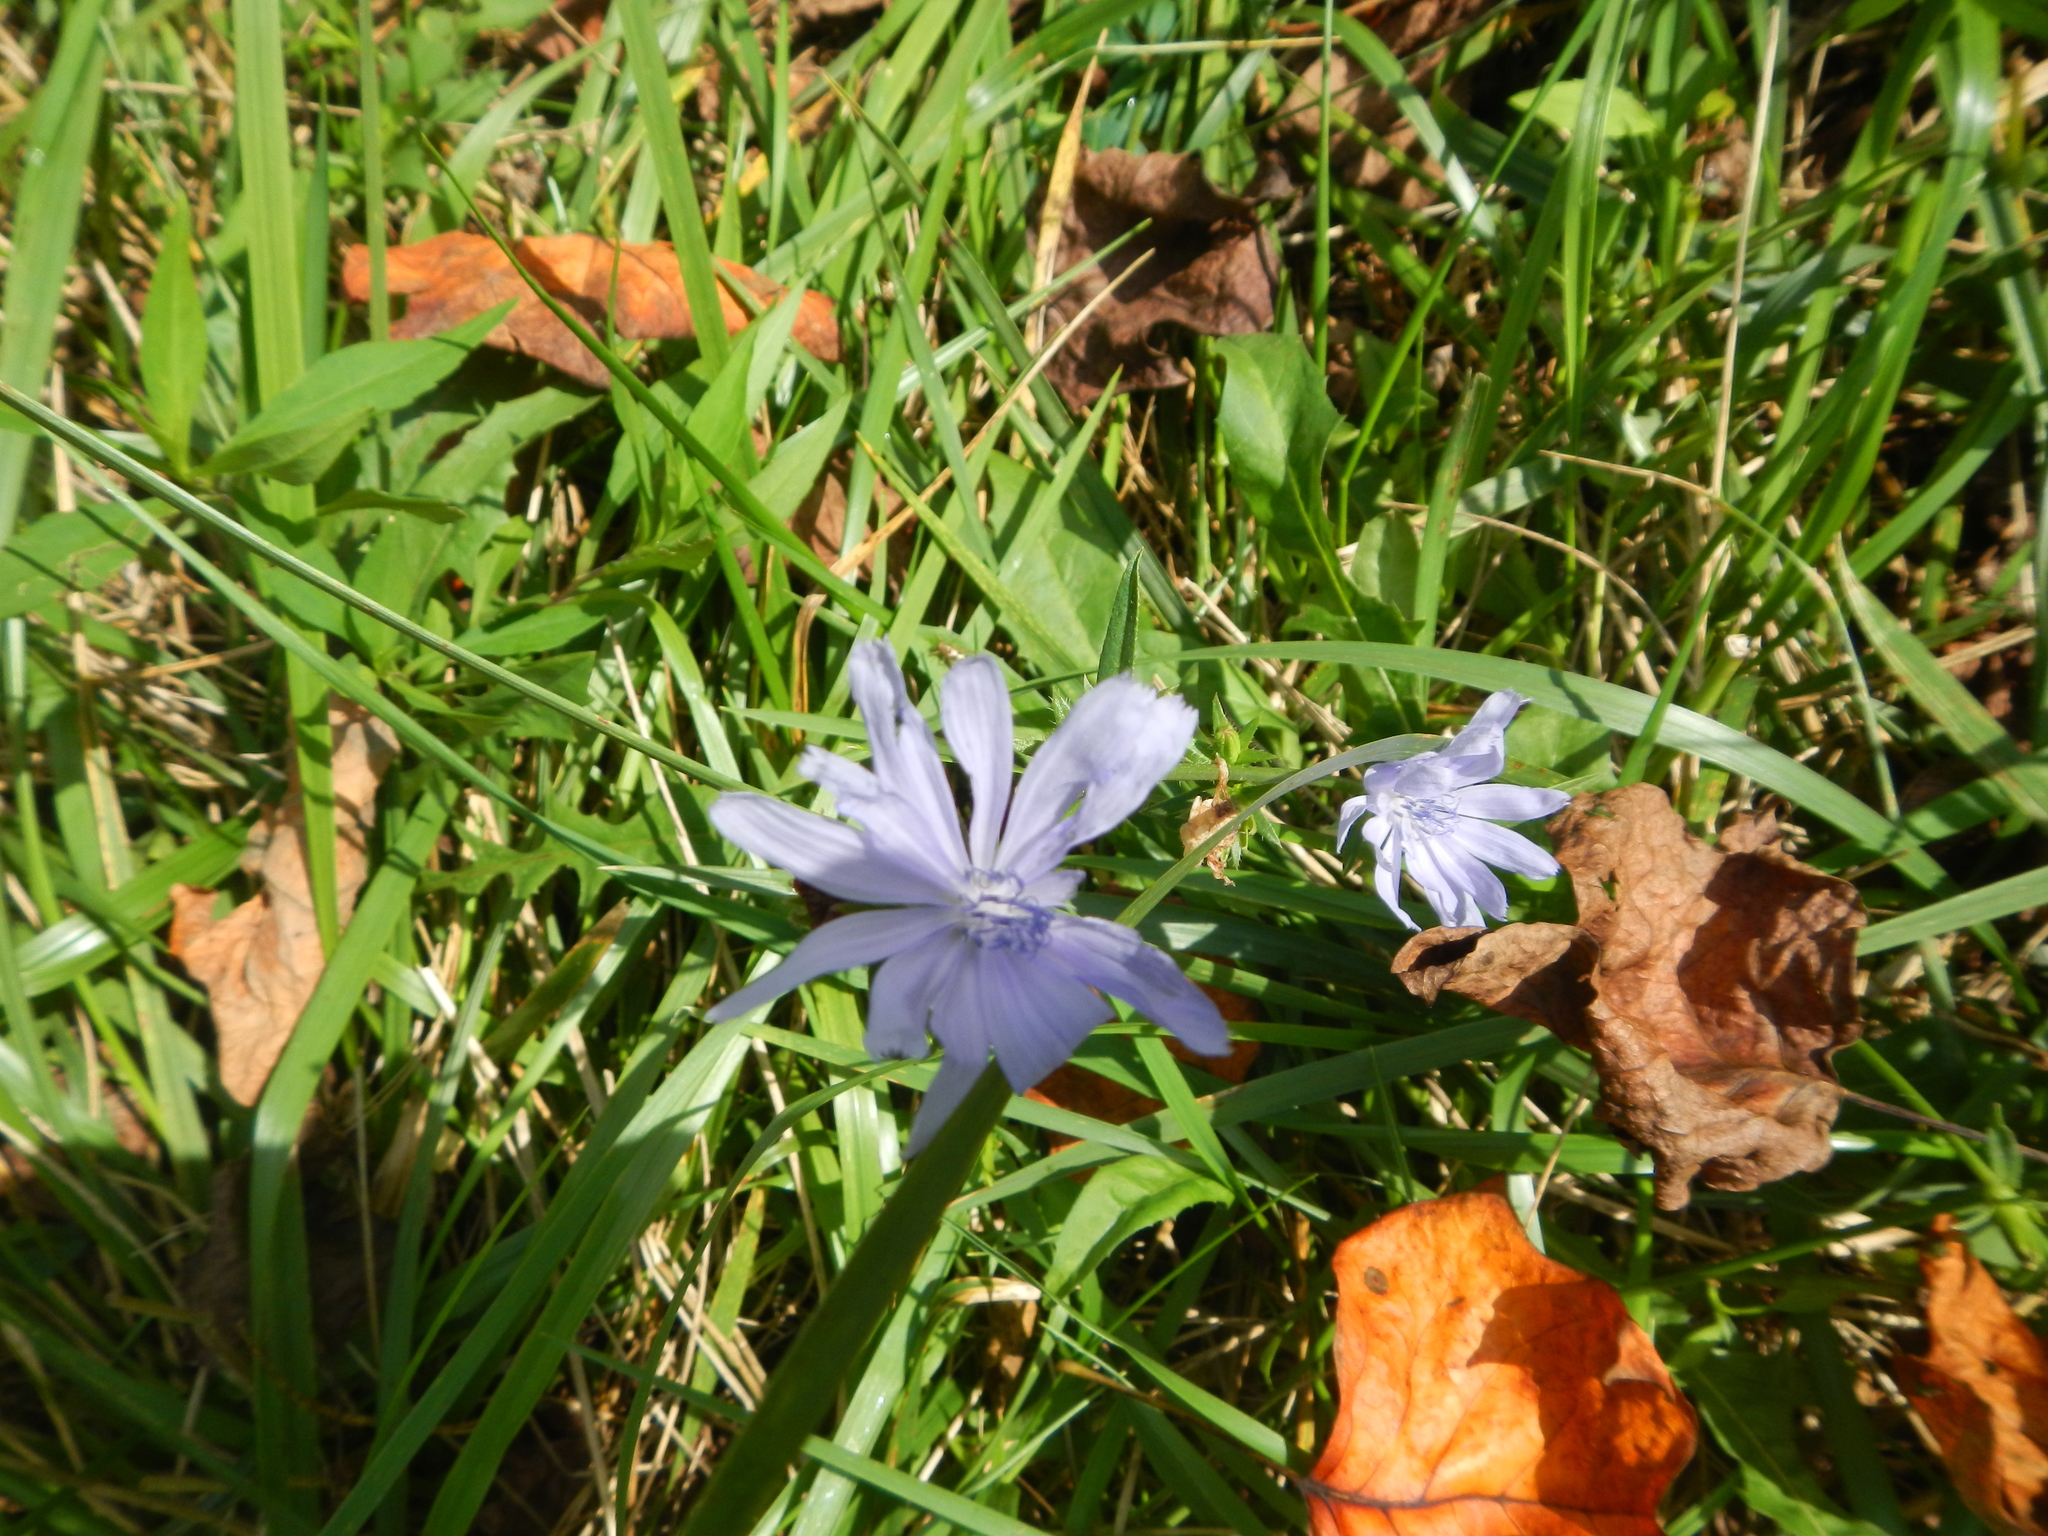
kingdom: Plantae
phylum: Tracheophyta
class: Magnoliopsida
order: Asterales
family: Asteraceae
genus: Cichorium
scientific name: Cichorium intybus
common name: Chicory
